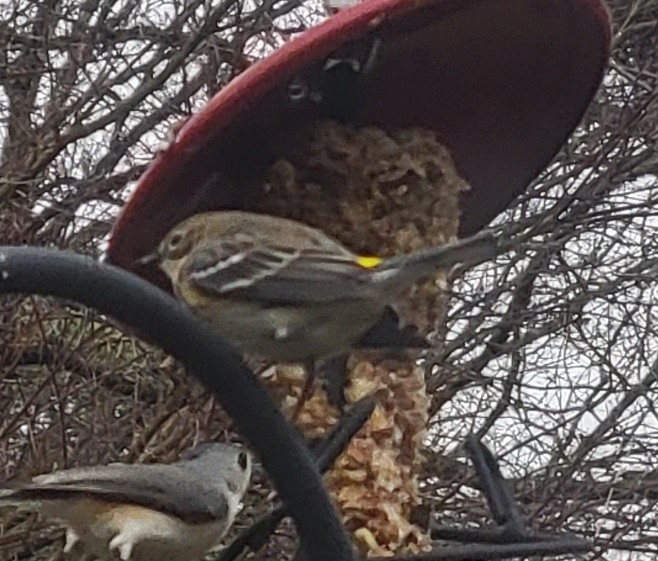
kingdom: Animalia
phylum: Chordata
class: Aves
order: Passeriformes
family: Parulidae
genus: Setophaga
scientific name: Setophaga coronata
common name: Myrtle warbler
